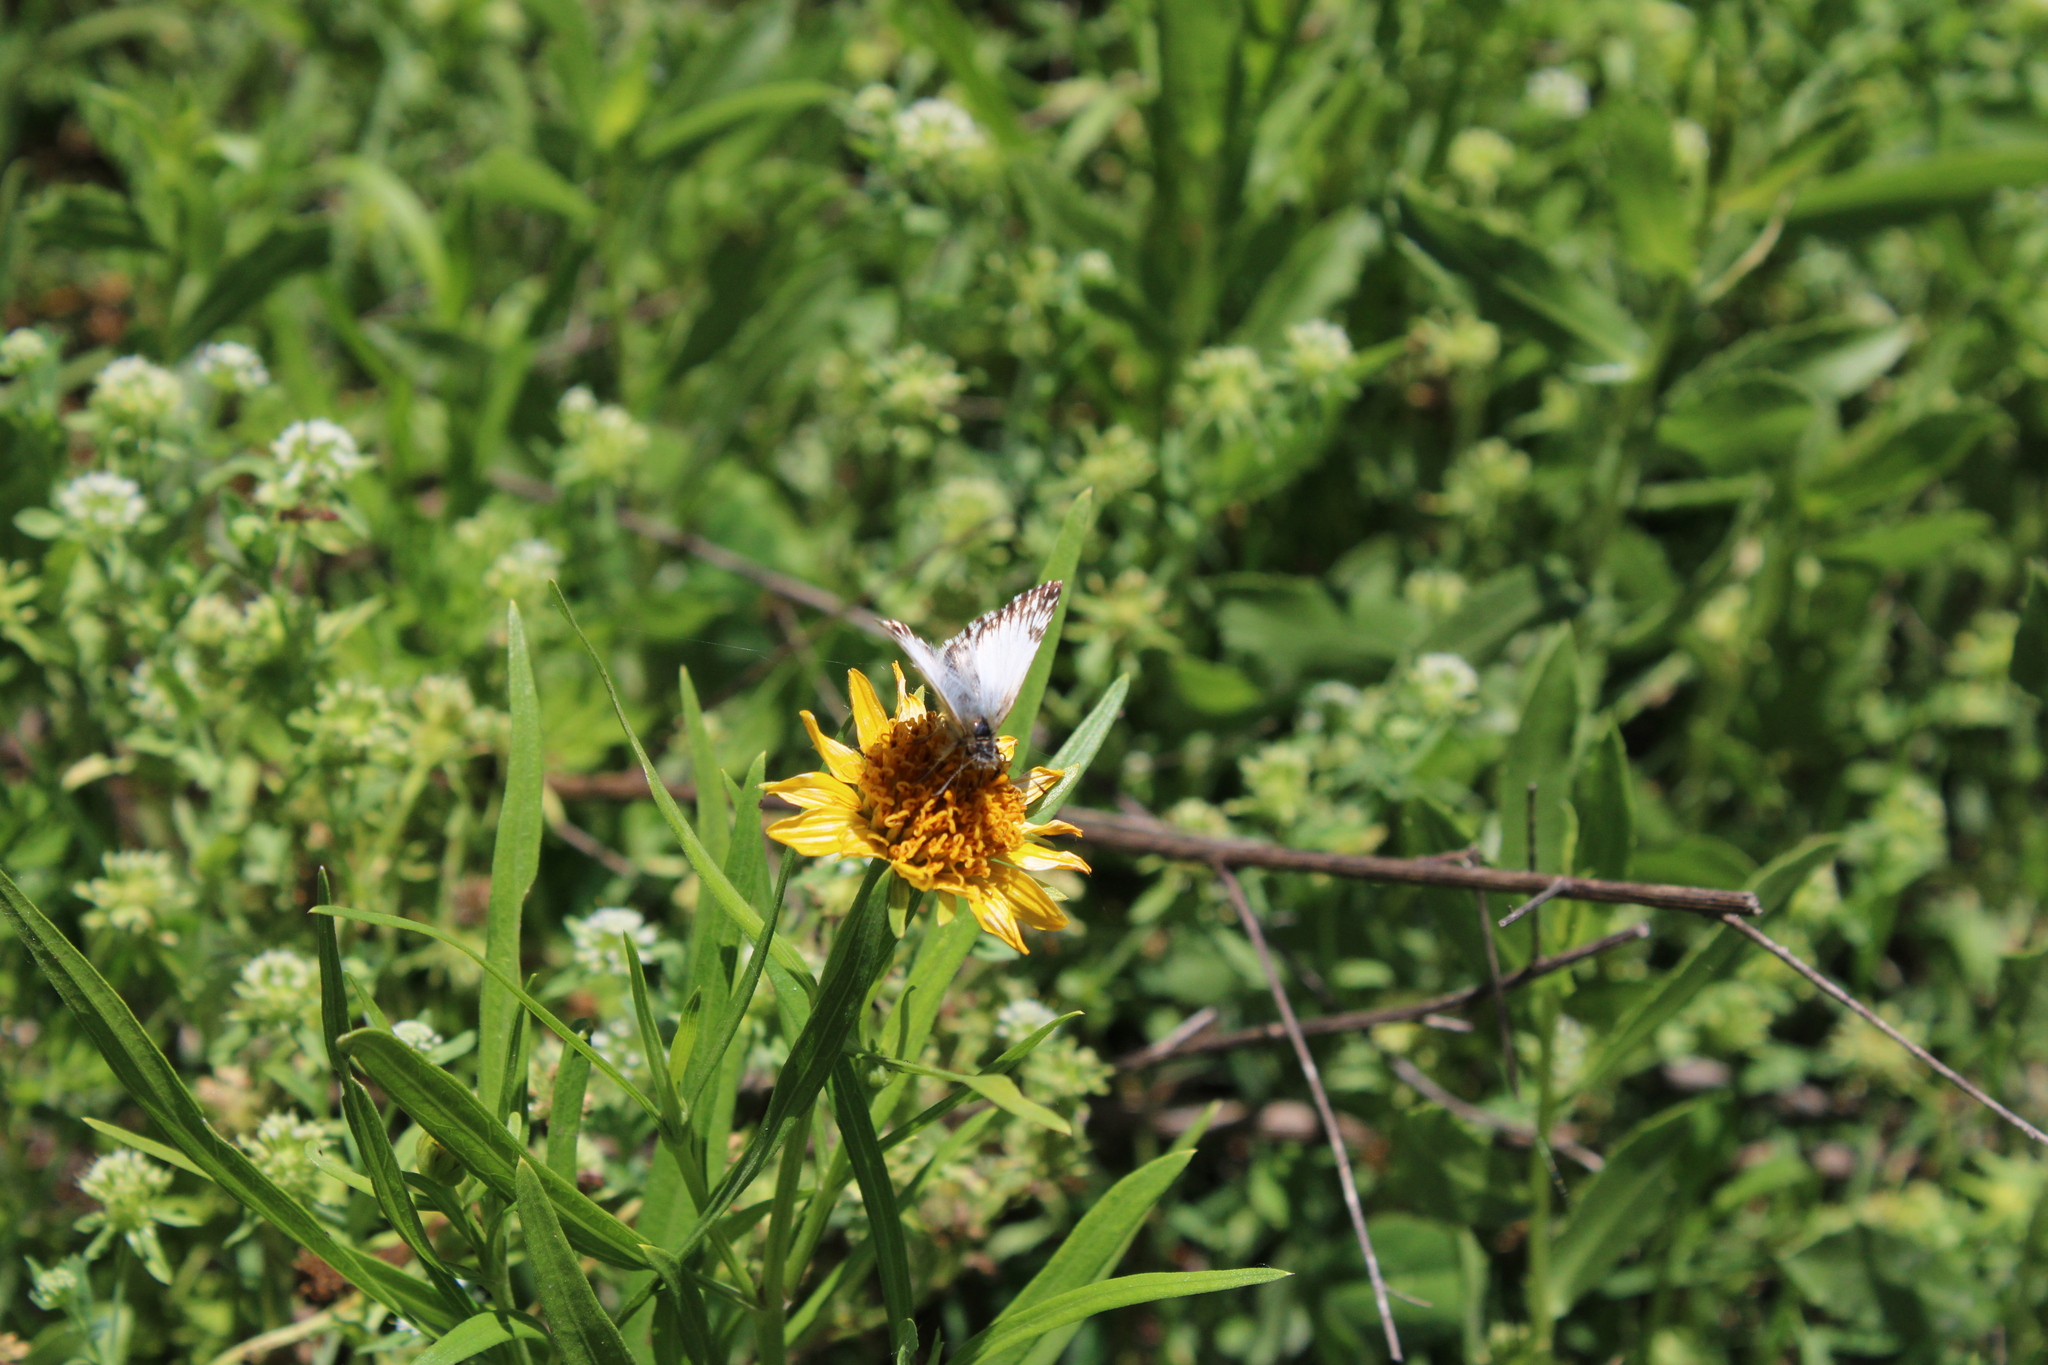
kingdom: Animalia
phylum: Arthropoda
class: Insecta
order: Lepidoptera
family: Hesperiidae
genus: Heliopetes
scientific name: Heliopetes omrina
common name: Stained white-skipper
